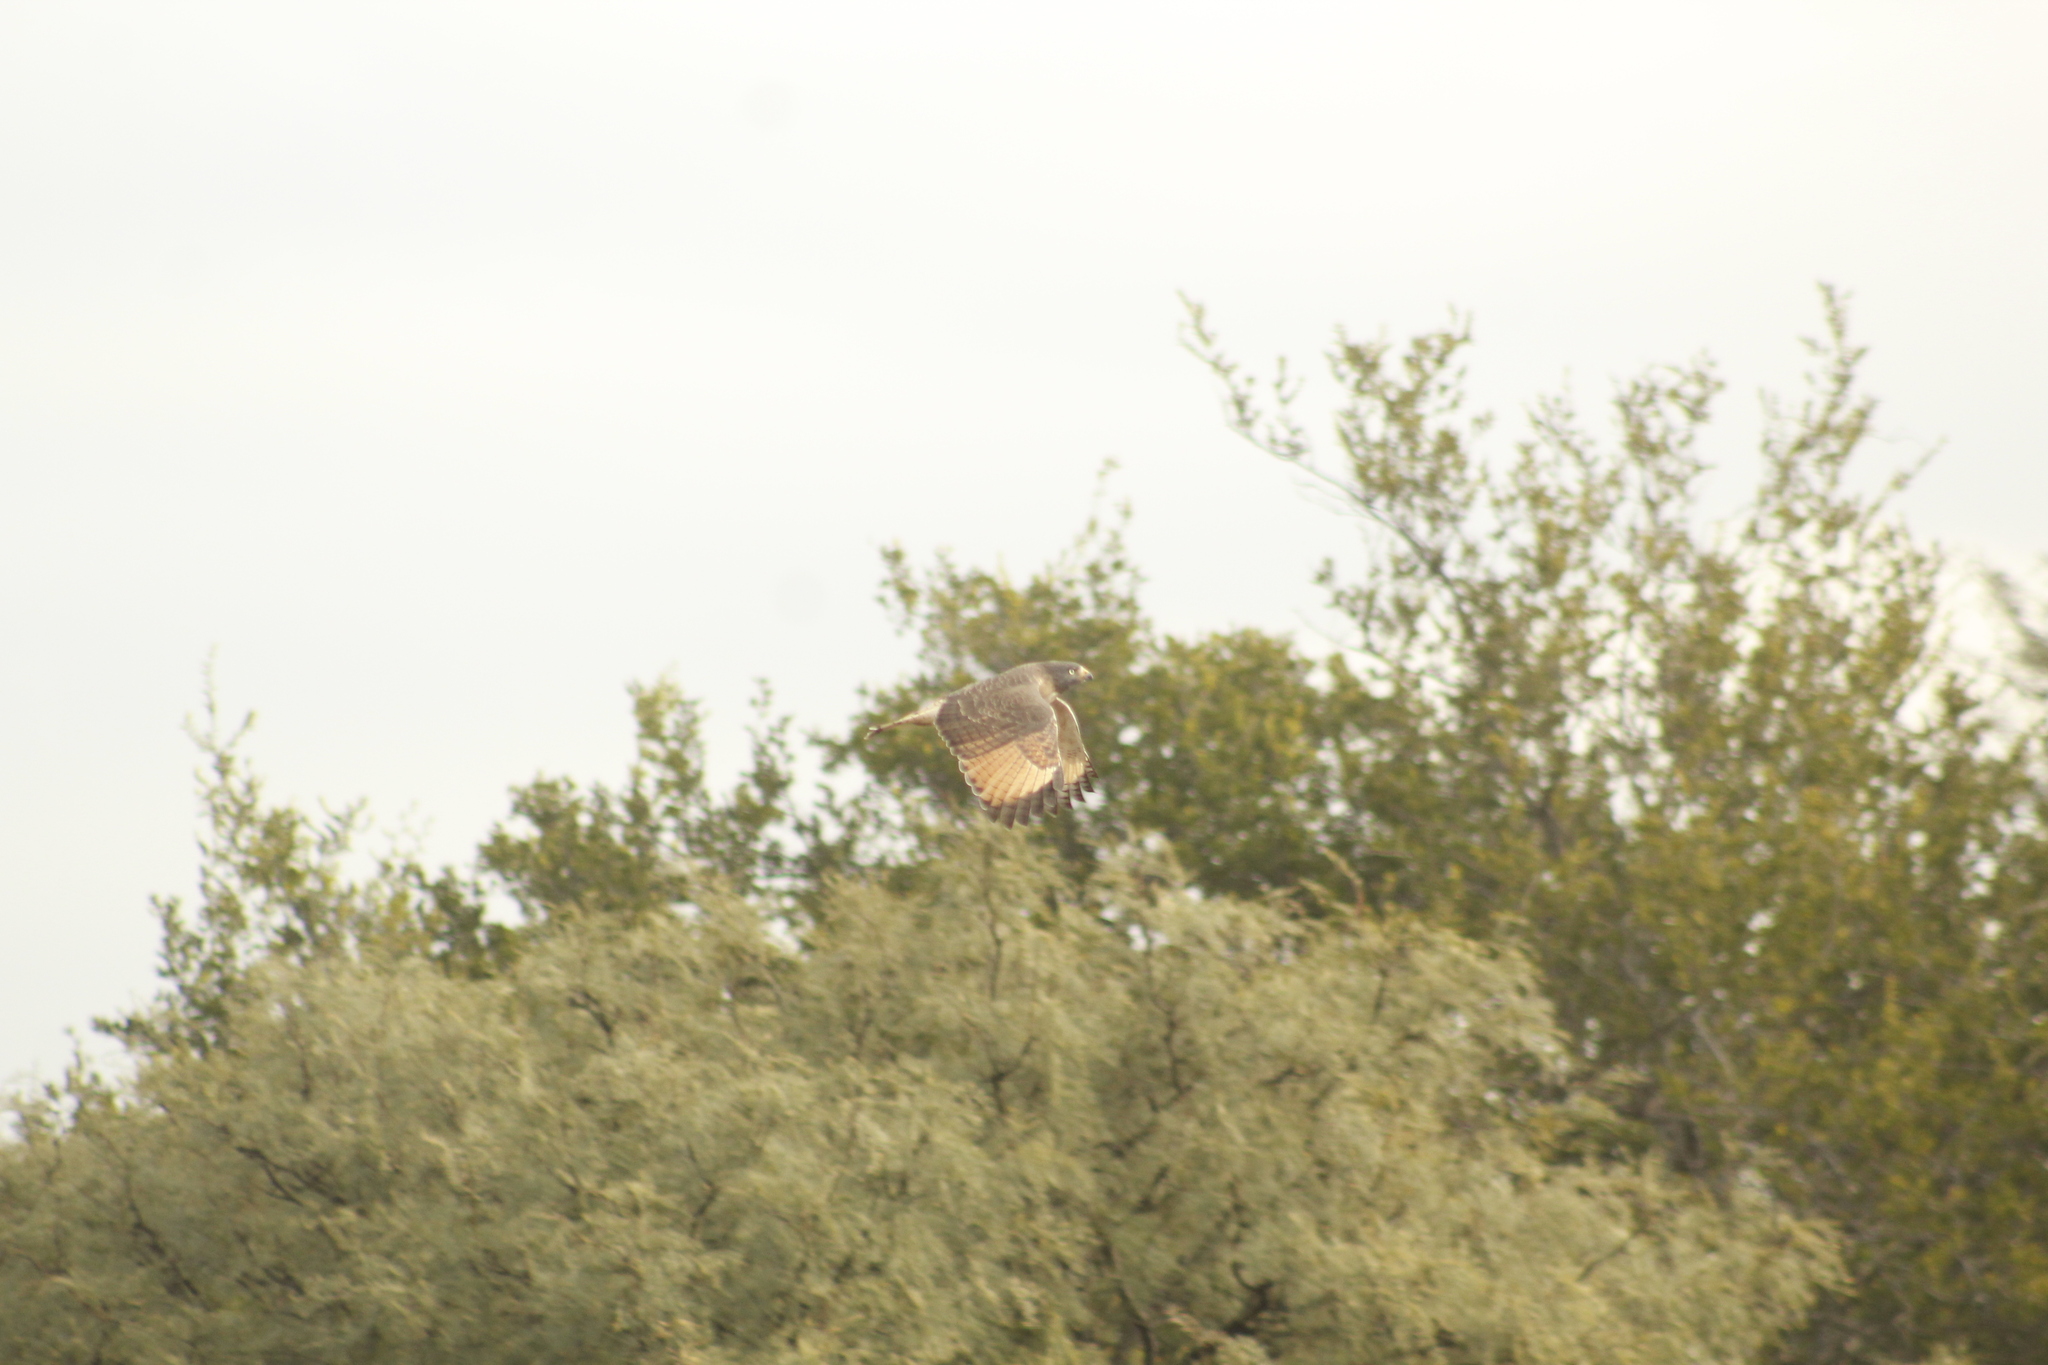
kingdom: Animalia
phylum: Chordata
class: Aves
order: Accipitriformes
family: Accipitridae
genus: Rupornis
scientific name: Rupornis magnirostris
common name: Roadside hawk
